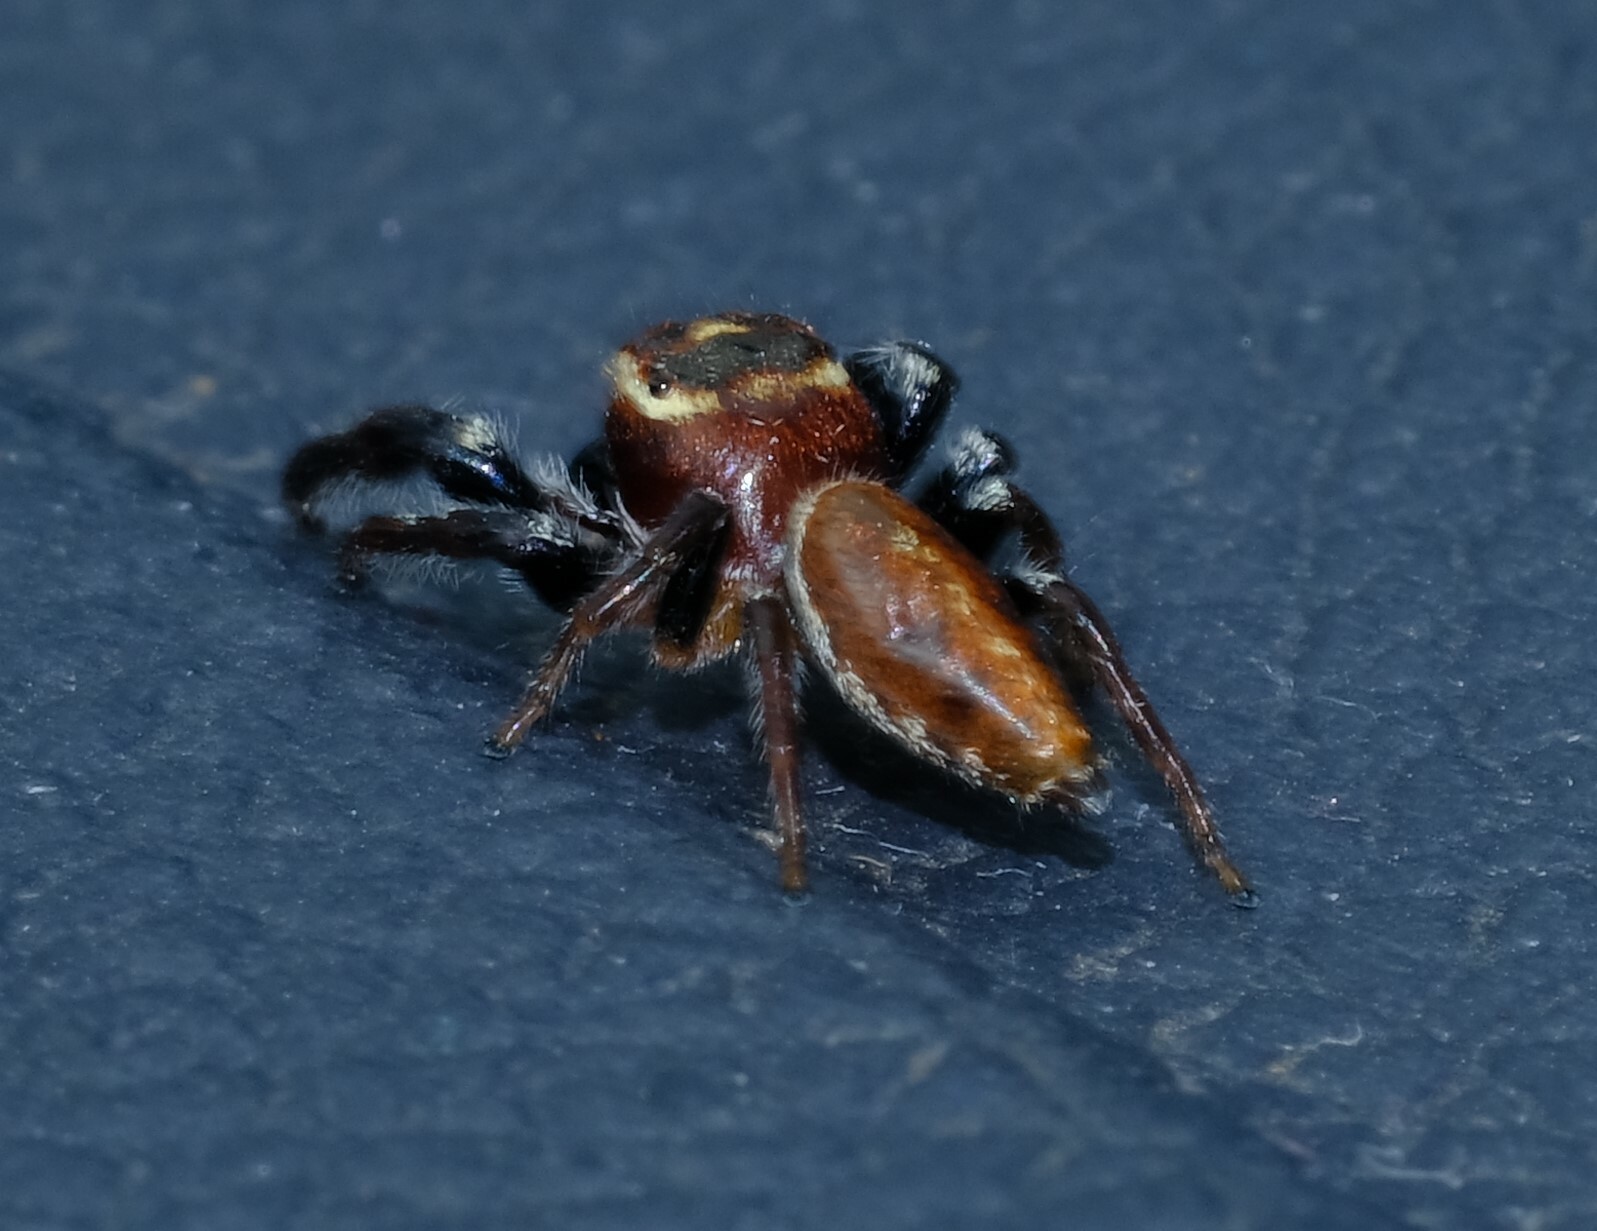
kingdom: Animalia
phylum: Arthropoda
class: Arachnida
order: Araneae
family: Salticidae
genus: Opisthoncus
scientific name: Opisthoncus nigrofemoratus
